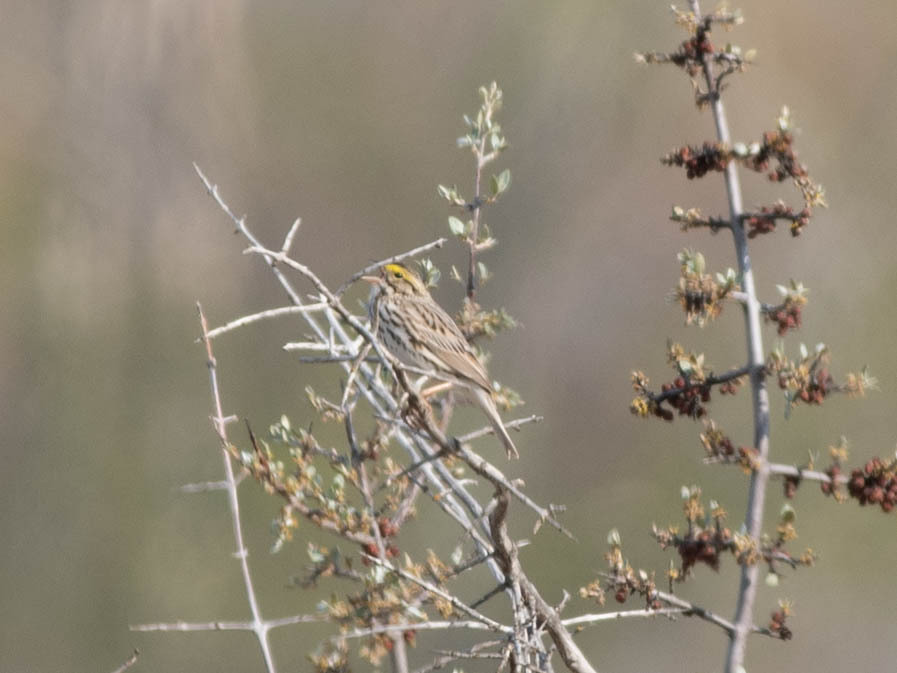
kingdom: Animalia
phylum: Chordata
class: Aves
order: Passeriformes
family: Passerellidae
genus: Passerculus
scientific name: Passerculus sandwichensis
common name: Savannah sparrow
